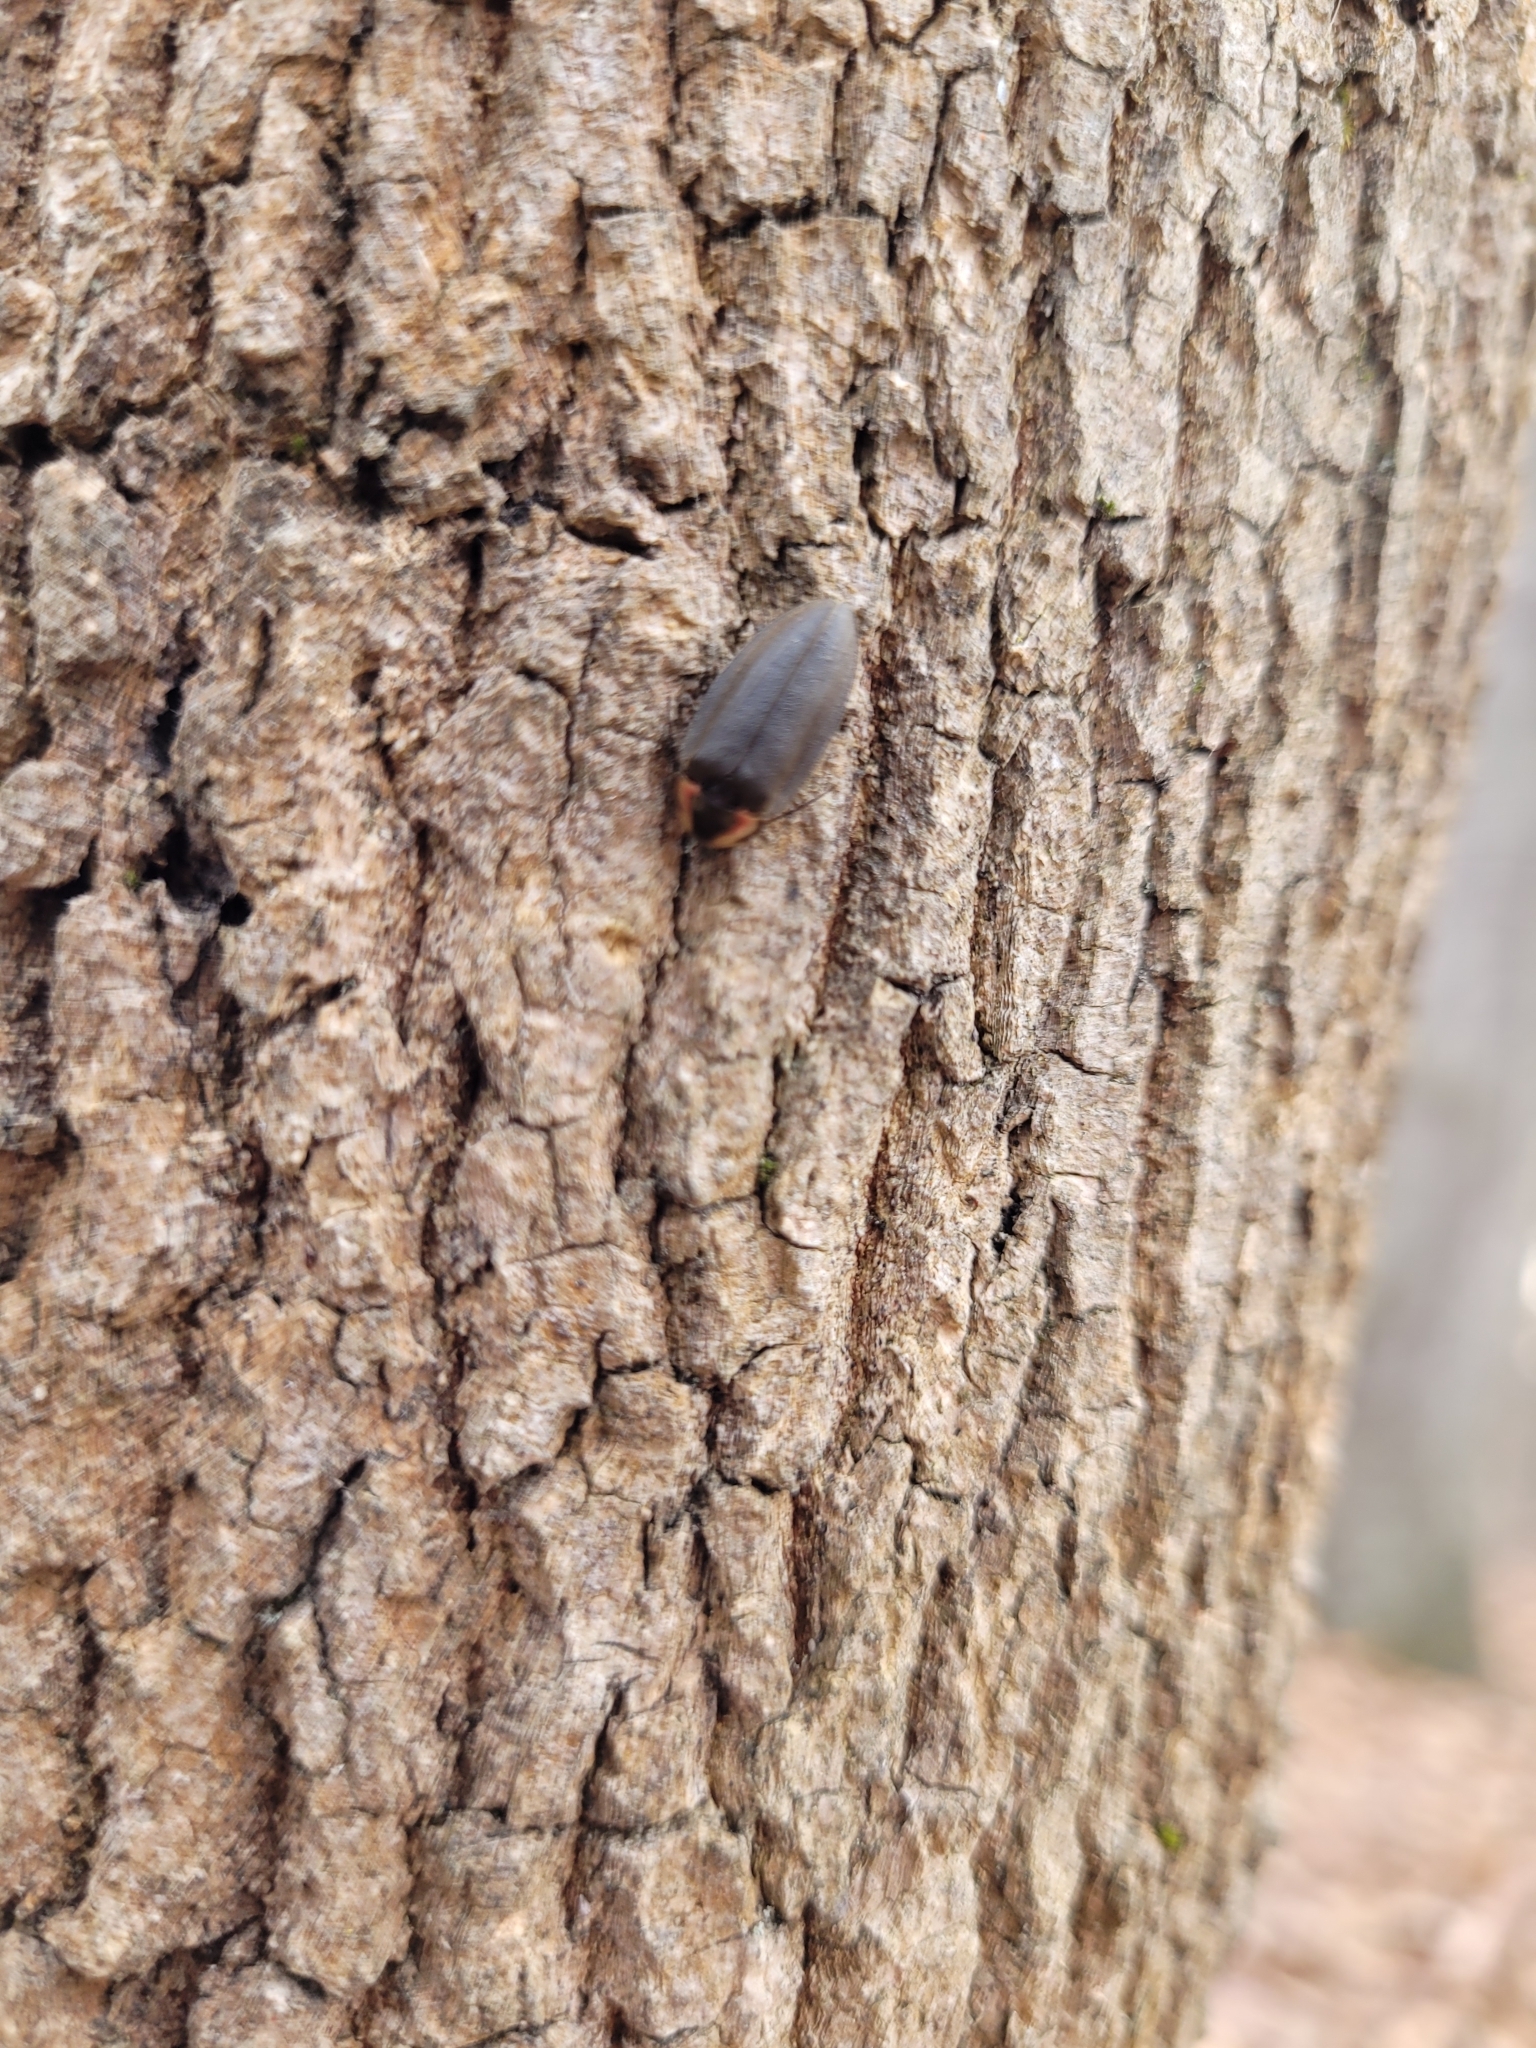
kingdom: Animalia
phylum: Arthropoda
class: Insecta
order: Coleoptera
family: Lampyridae
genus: Photinus
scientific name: Photinus corrusca
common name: Winter firefly
